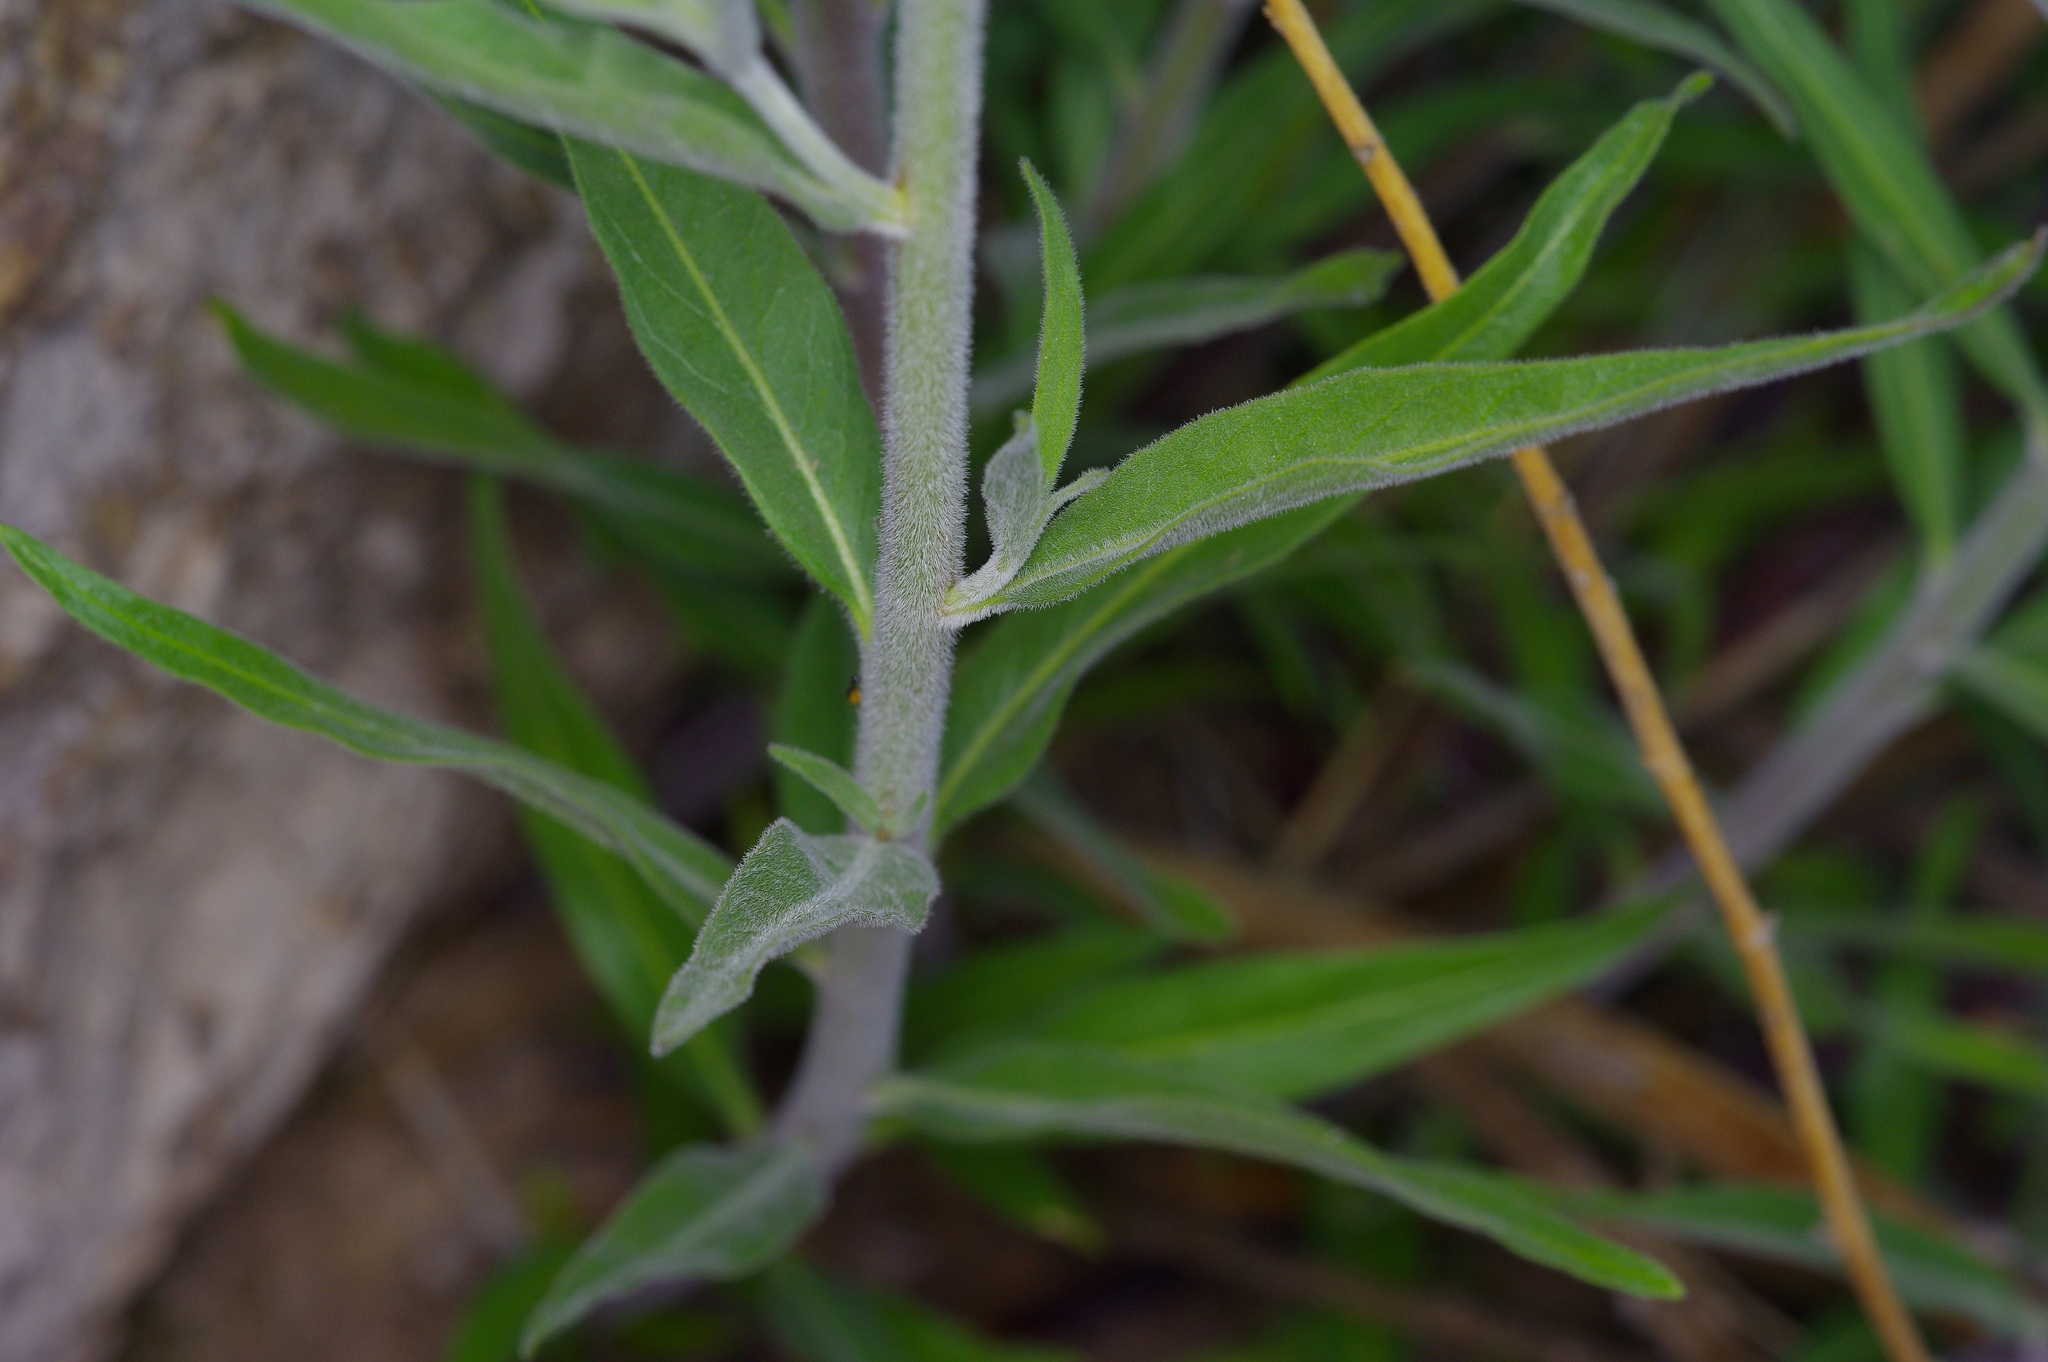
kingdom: Plantae
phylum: Tracheophyta
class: Magnoliopsida
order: Gentianales
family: Apocynaceae
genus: Amsonia
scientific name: Amsonia palmeri
